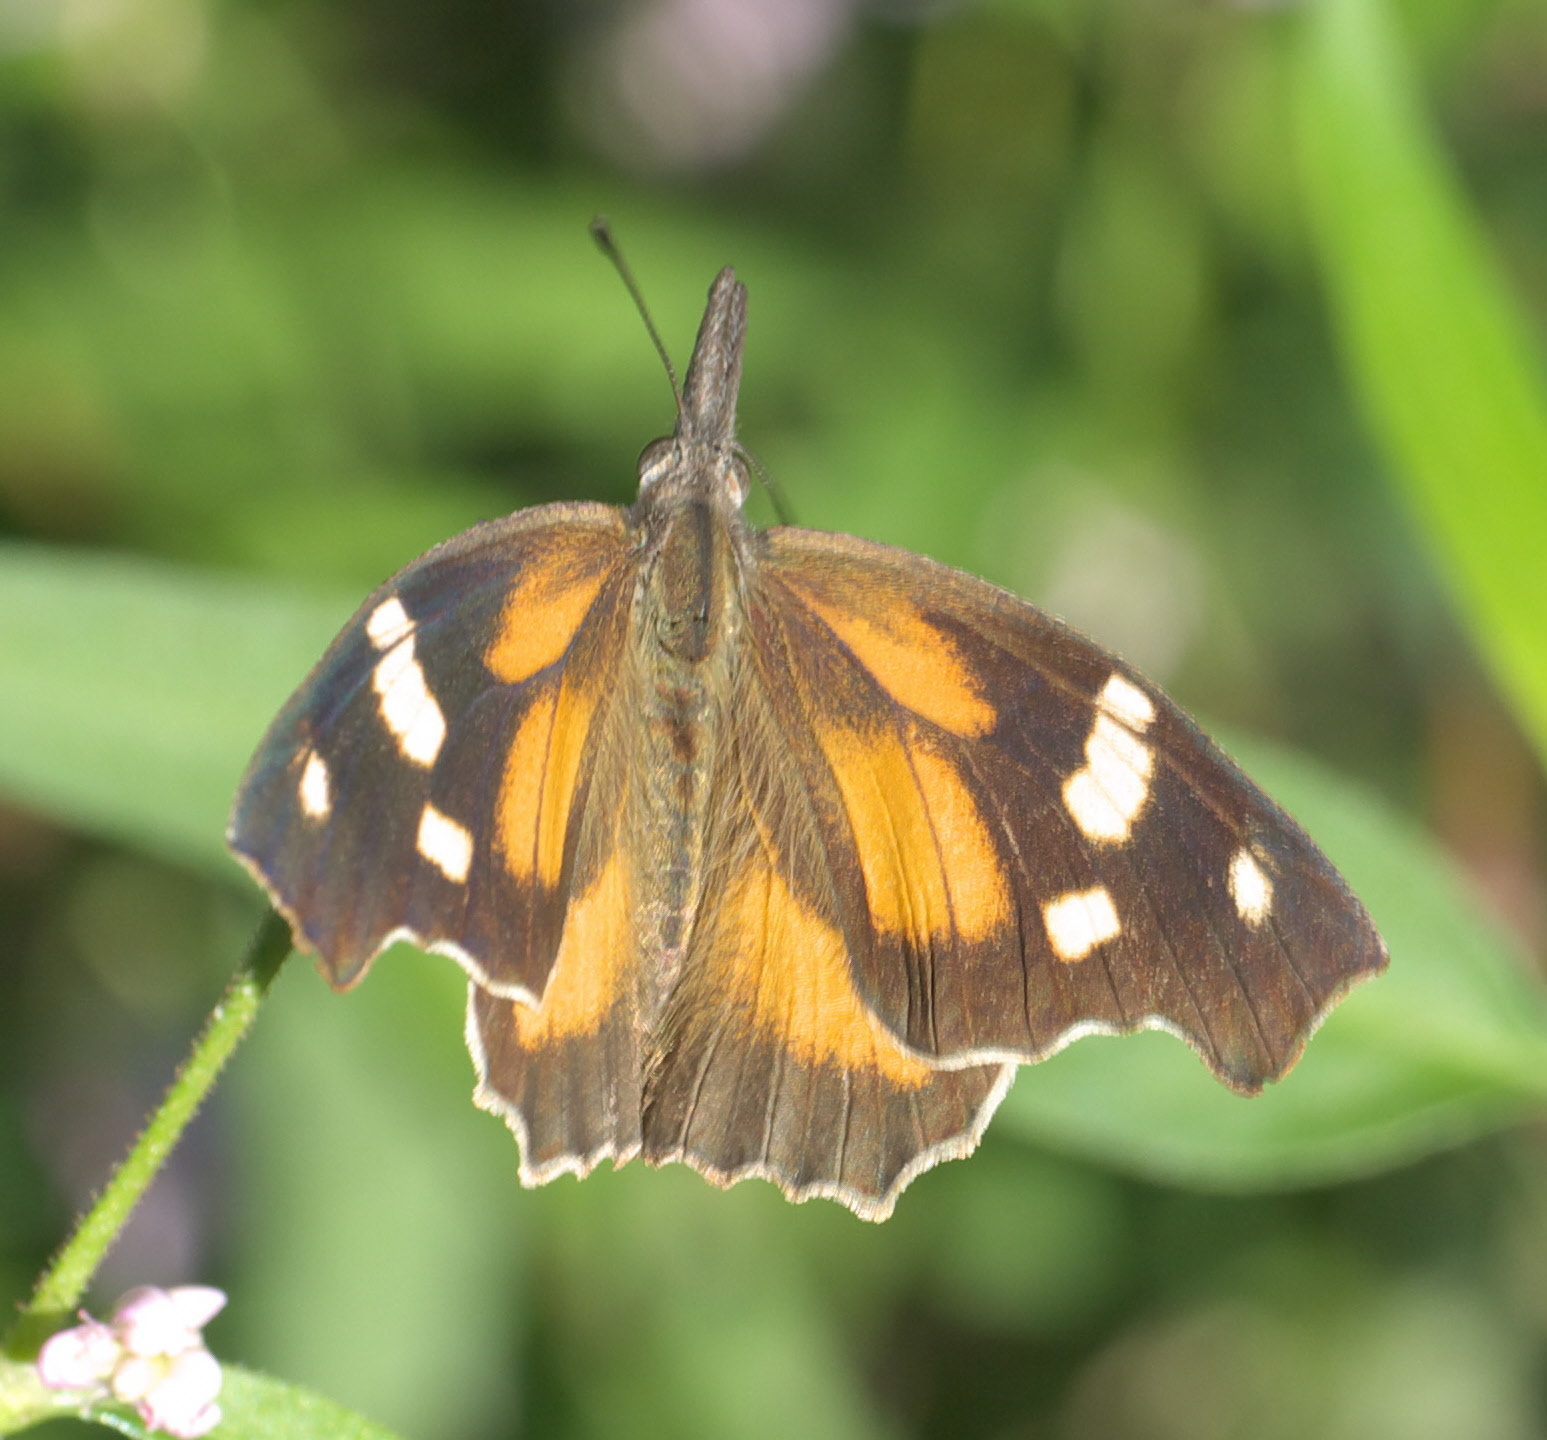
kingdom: Animalia
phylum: Arthropoda
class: Insecta
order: Lepidoptera
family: Nymphalidae
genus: Libytheana
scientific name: Libytheana carinenta
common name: American snout
